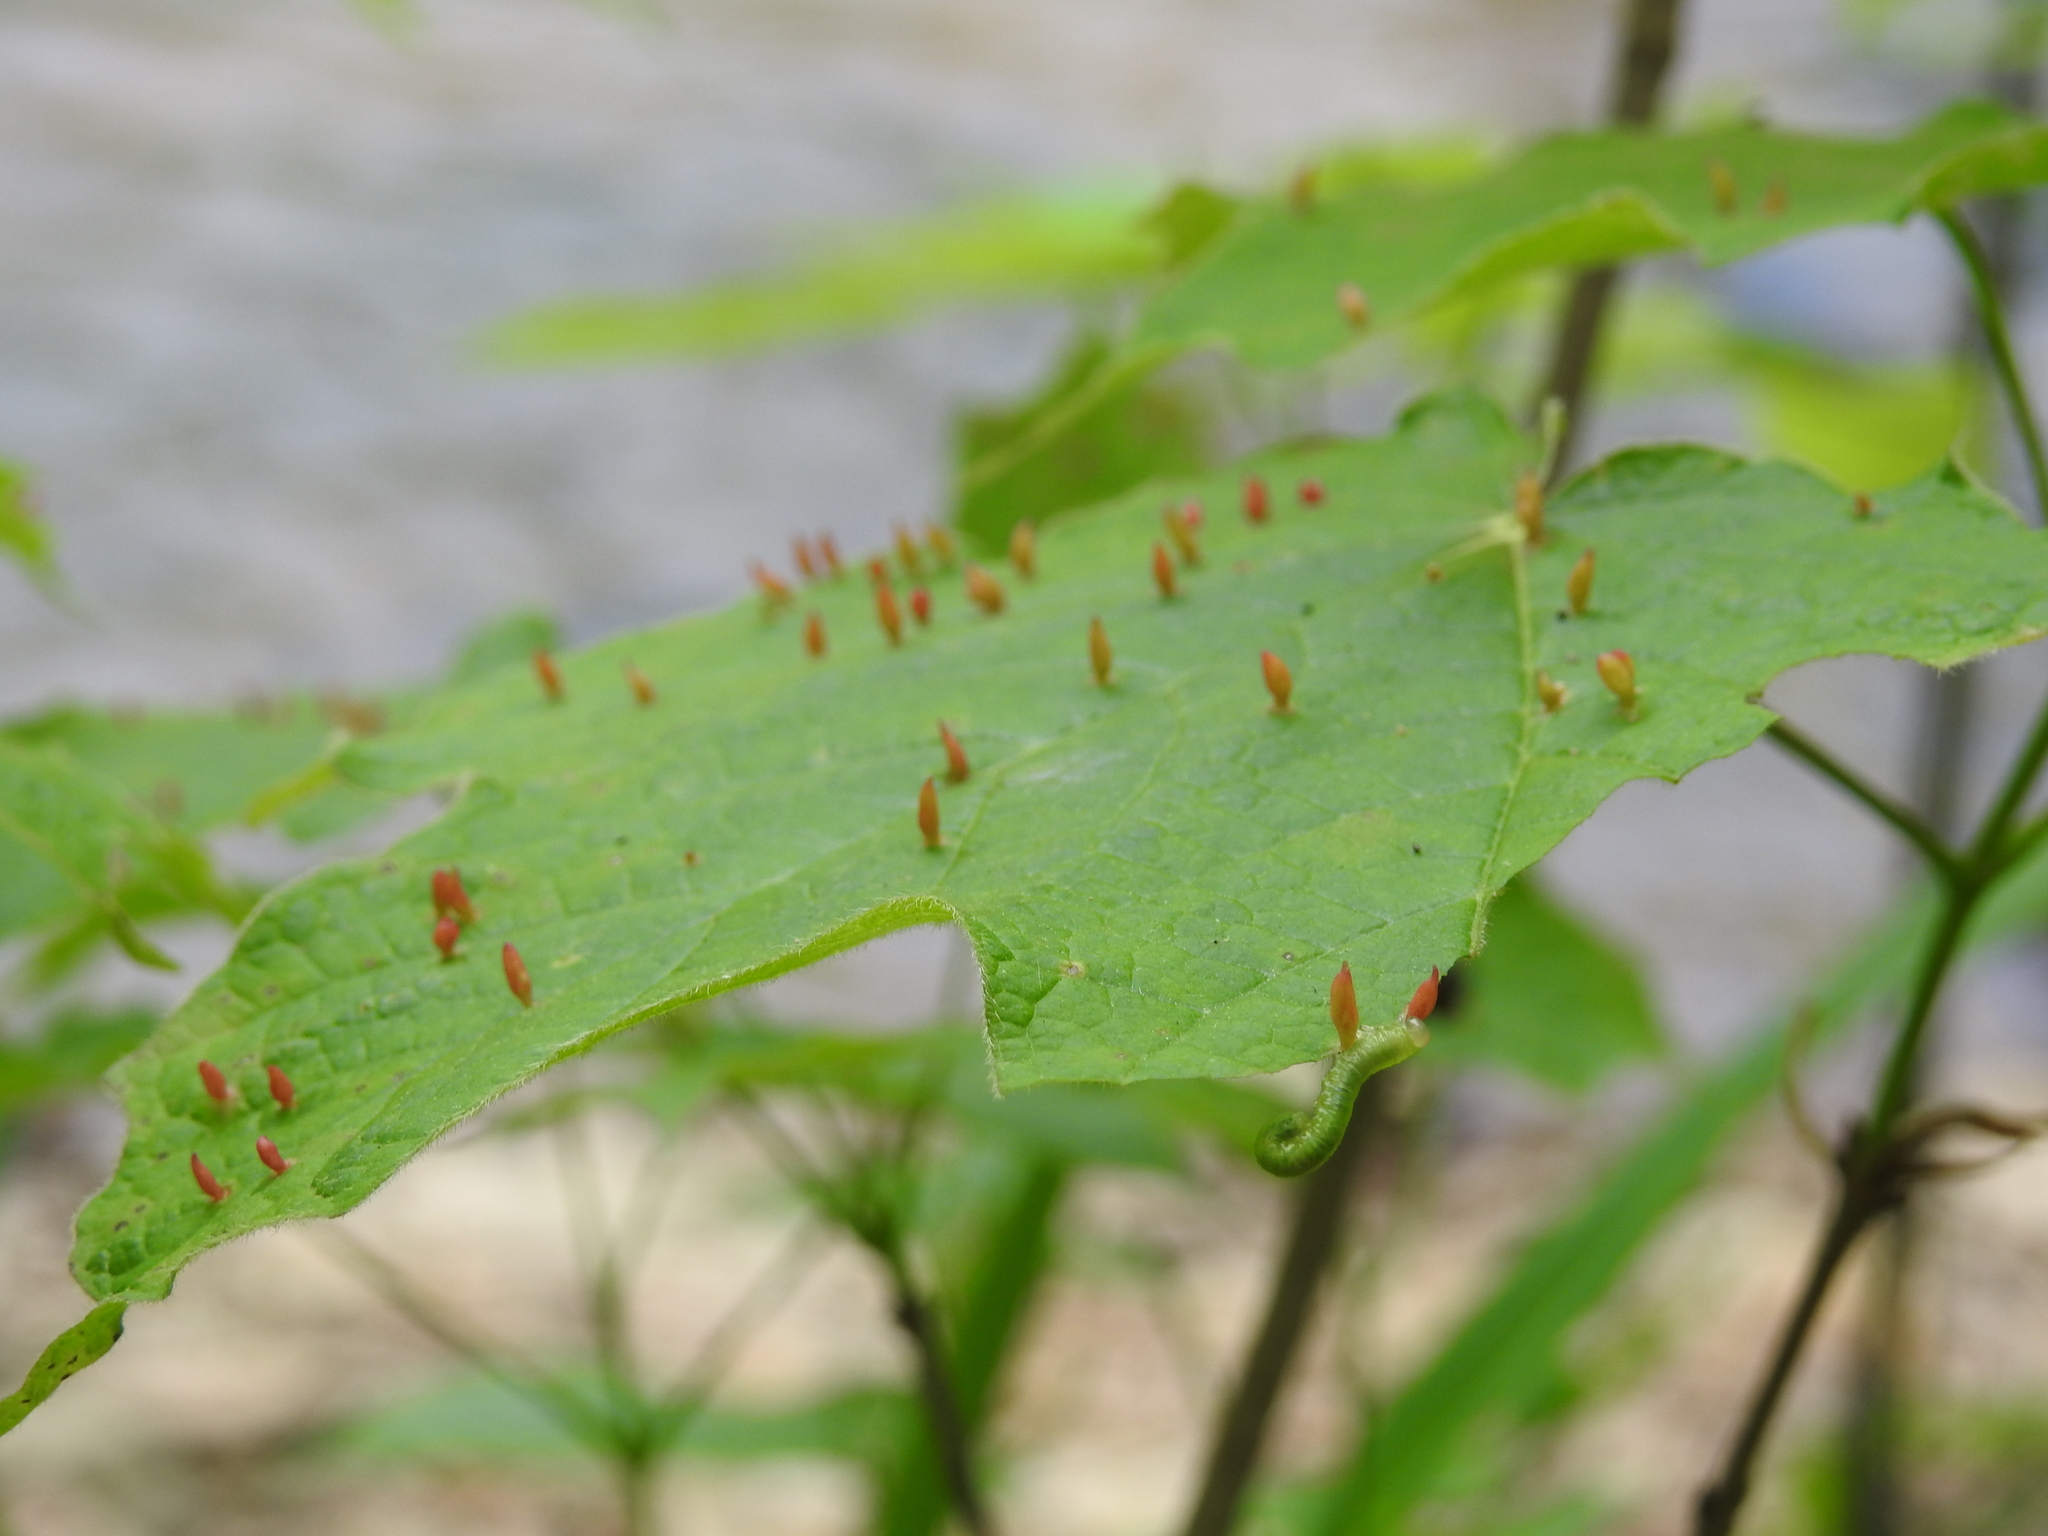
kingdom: Animalia
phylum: Arthropoda
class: Arachnida
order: Trombidiformes
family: Eriophyidae
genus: Vasates
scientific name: Vasates aceriscrumena
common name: Maple spindle gall mite
